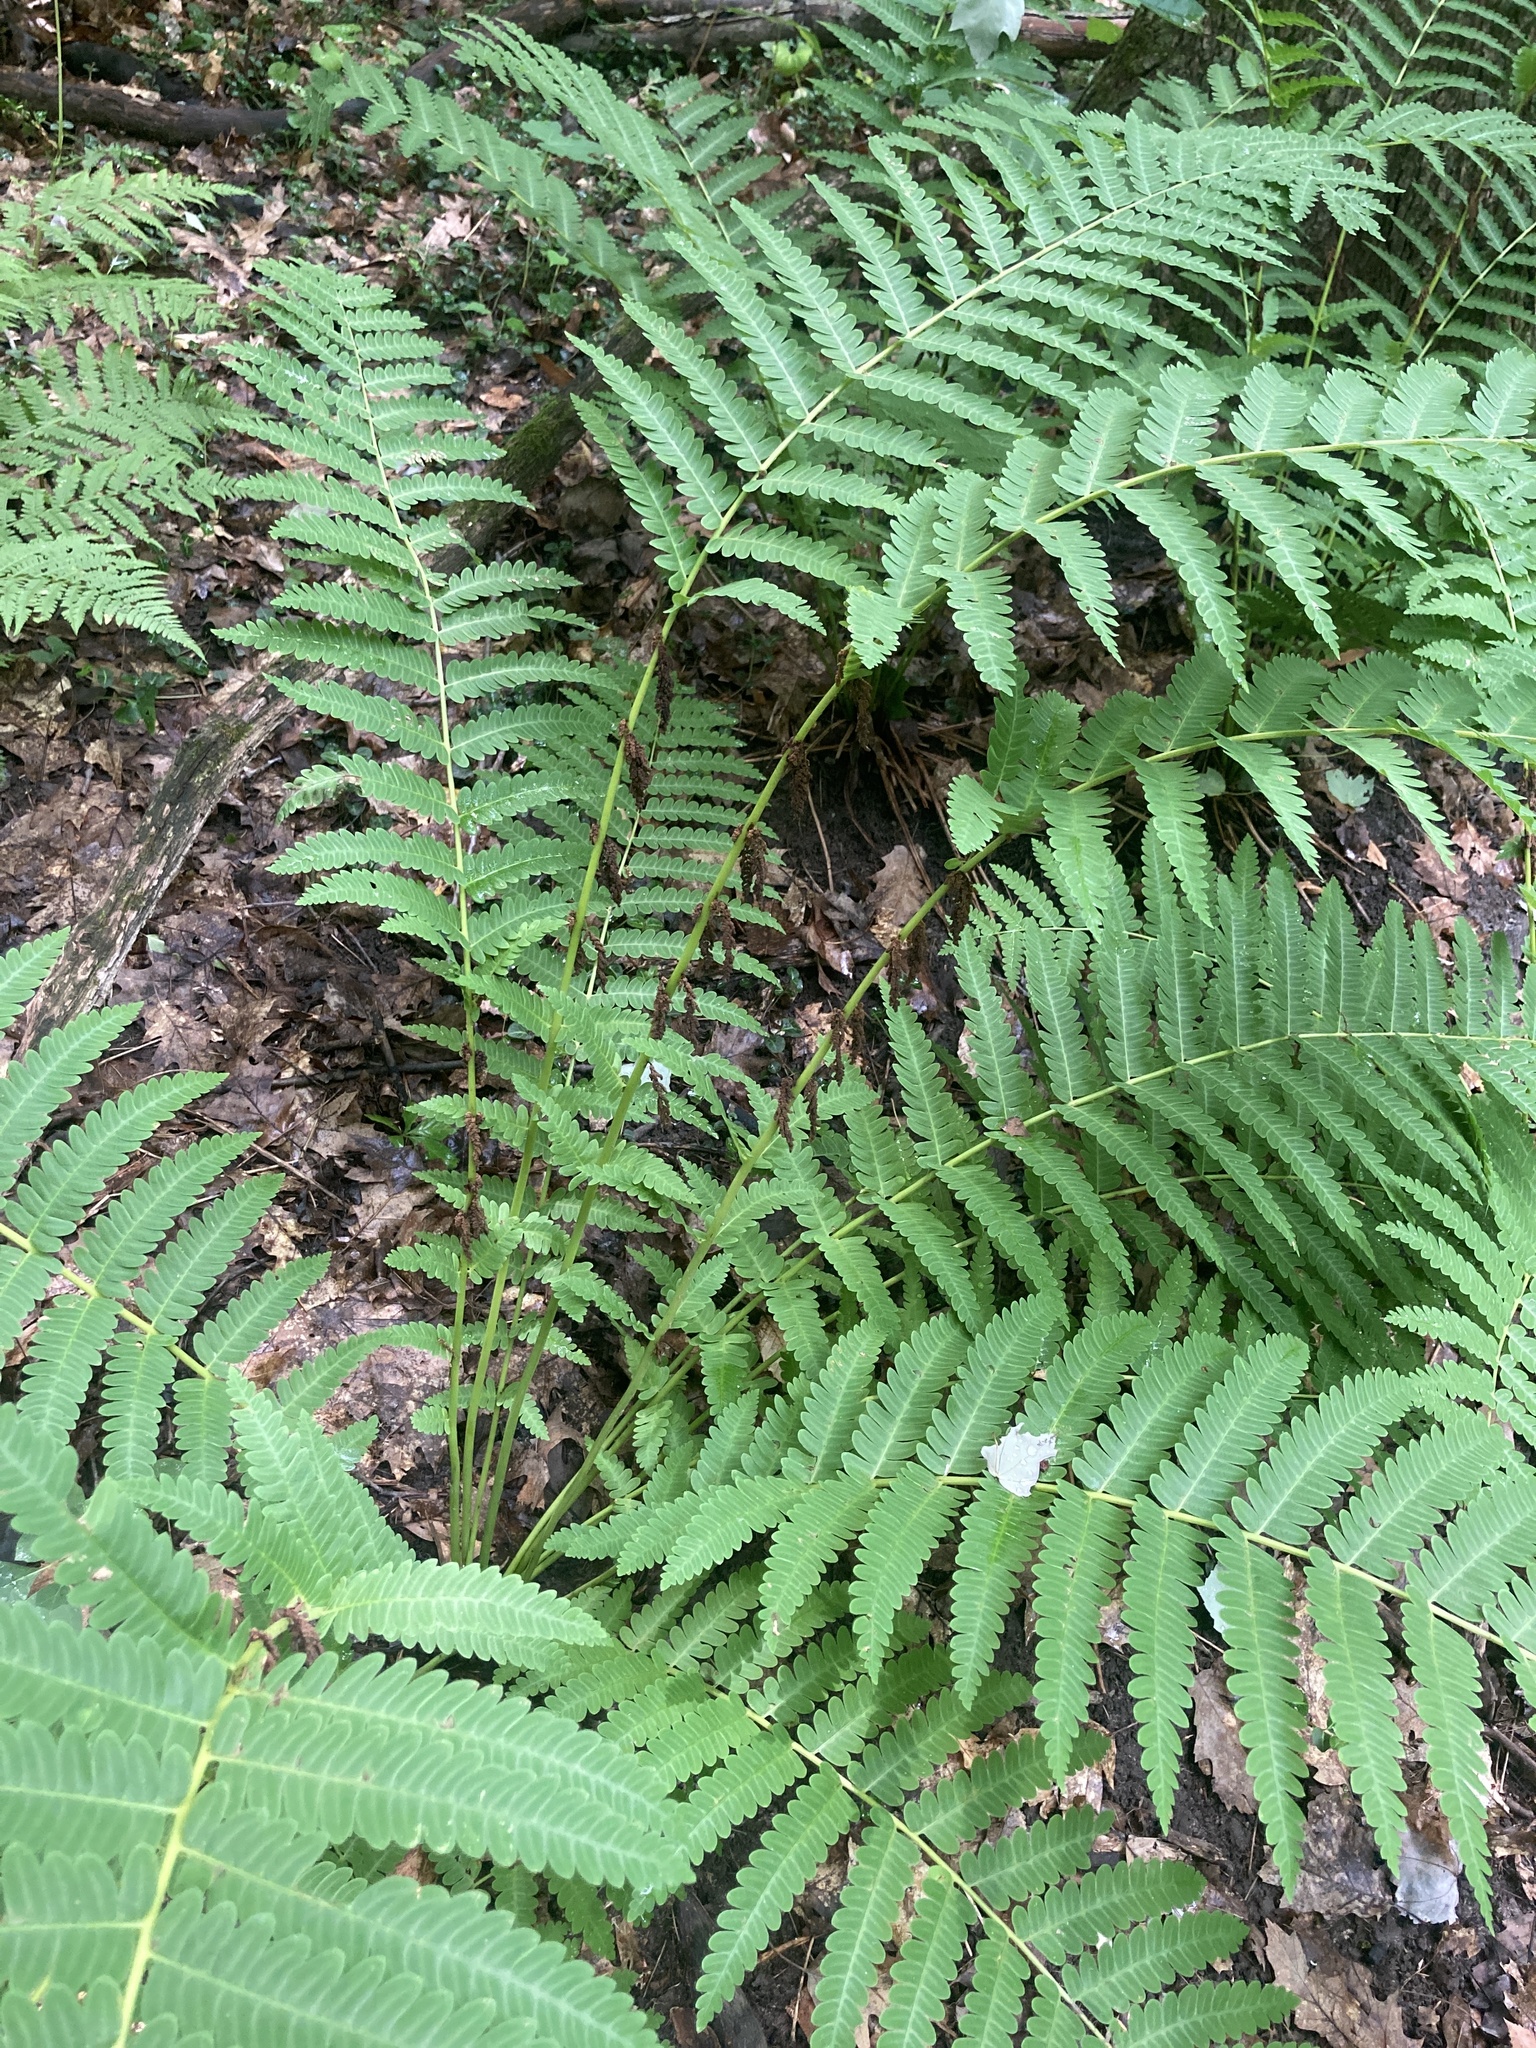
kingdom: Plantae
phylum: Tracheophyta
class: Polypodiopsida
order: Osmundales
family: Osmundaceae
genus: Claytosmunda
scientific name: Claytosmunda claytoniana
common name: Clayton's fern
